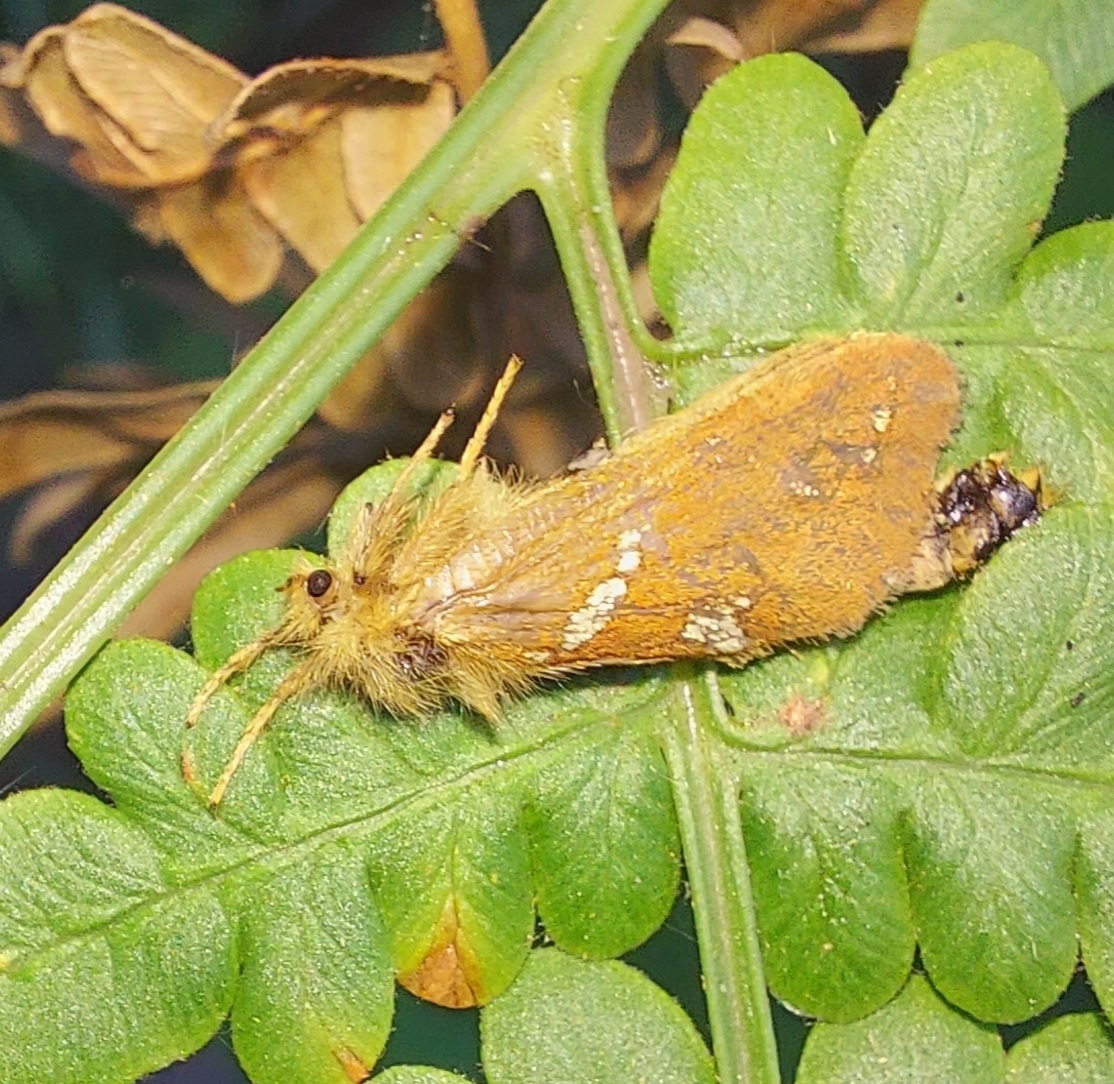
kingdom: Animalia
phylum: Arthropoda
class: Insecta
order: Lepidoptera
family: Hepialidae
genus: Phymatopus
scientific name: Phymatopus hecta
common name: Gold swift
